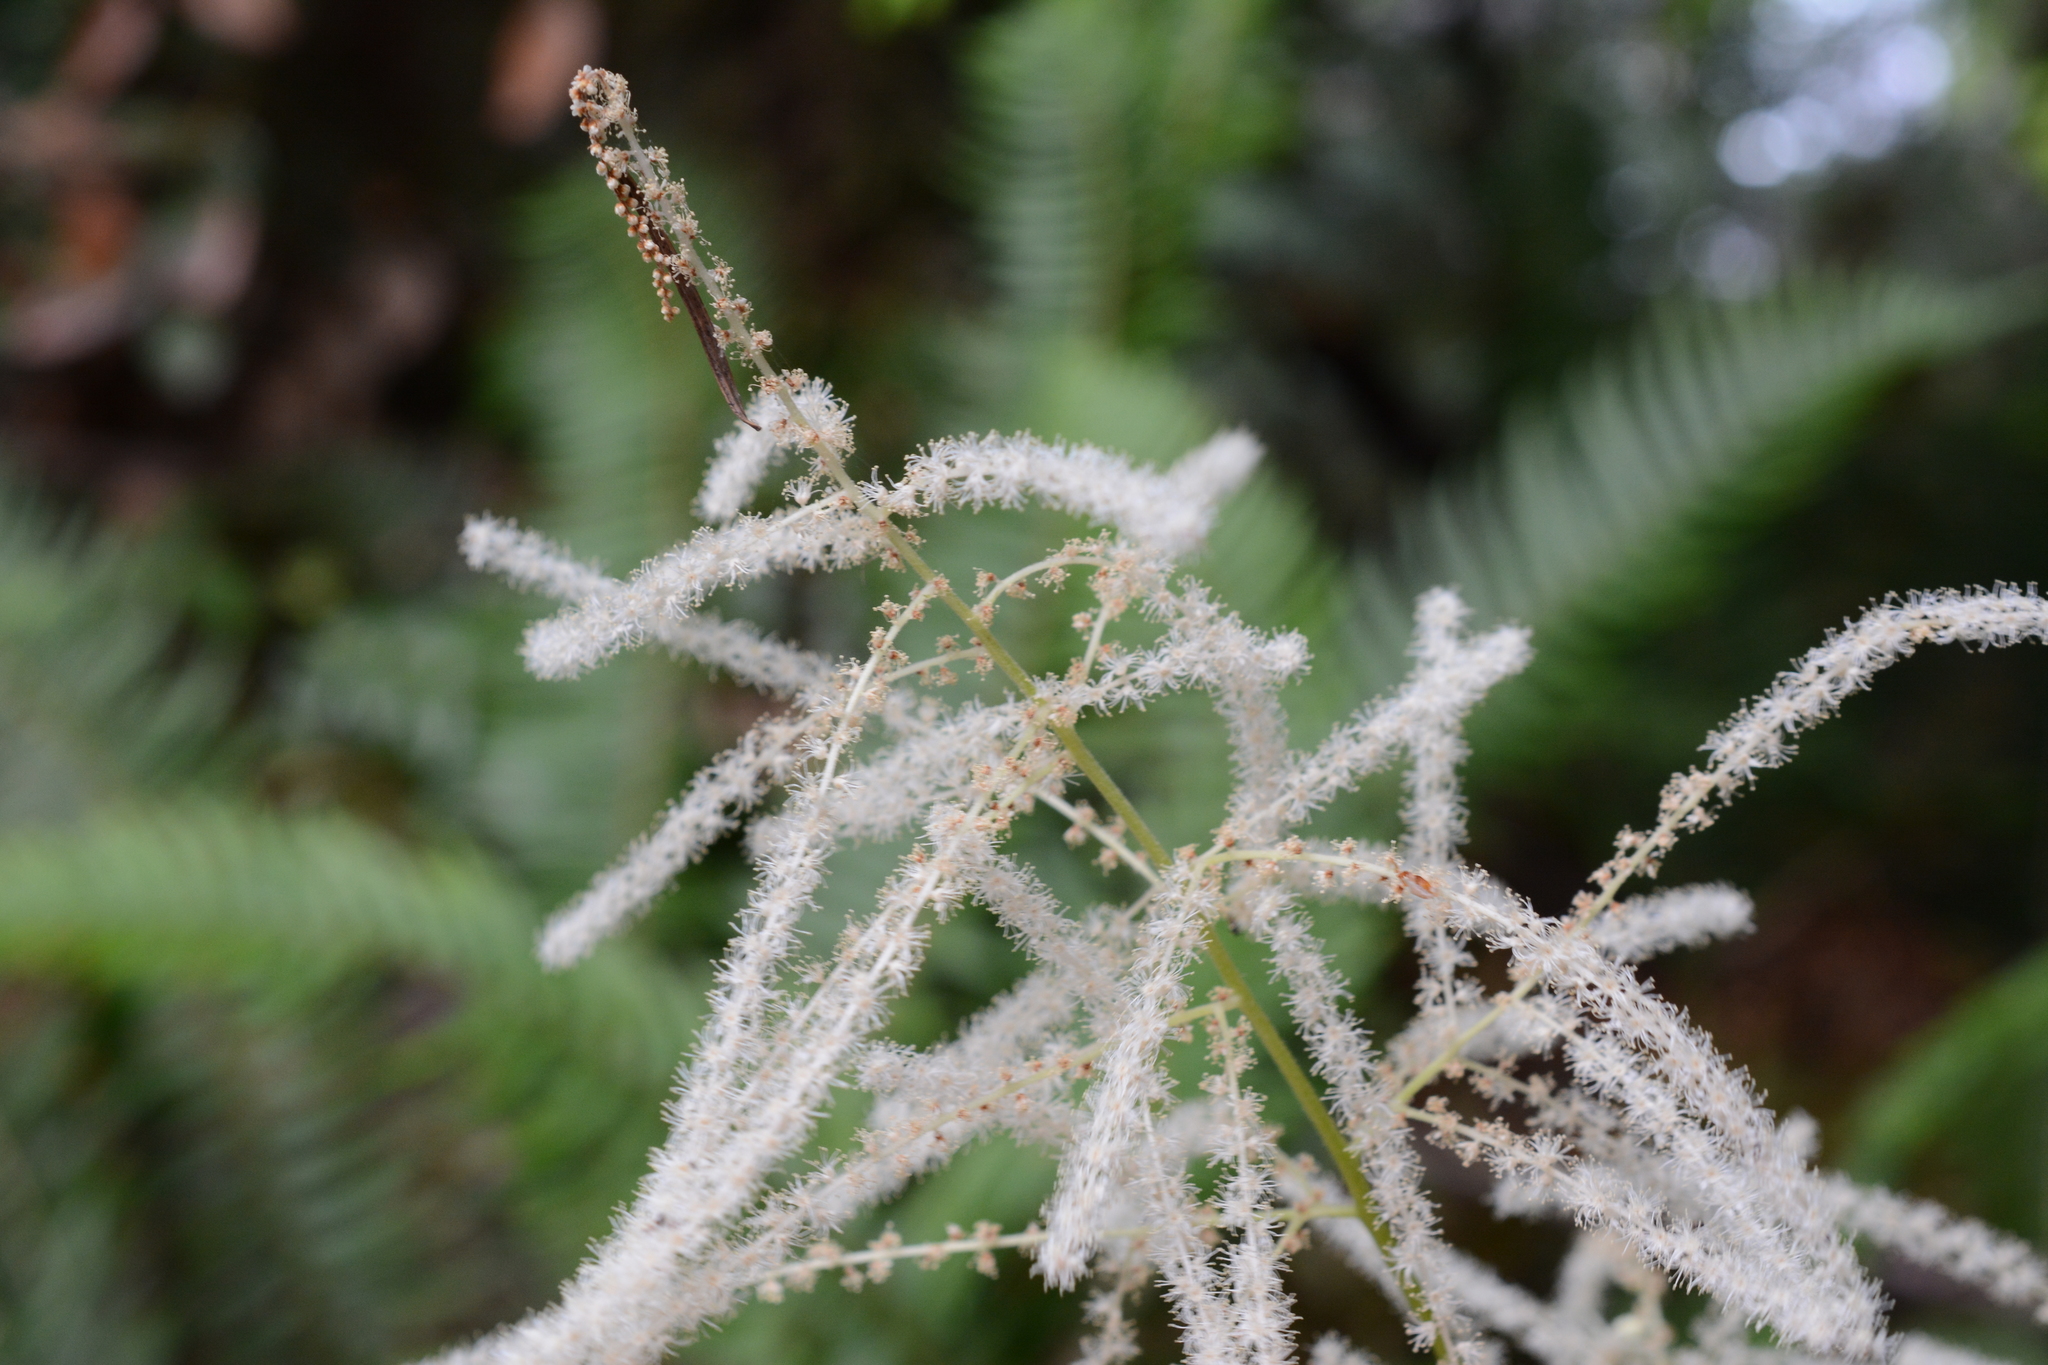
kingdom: Plantae
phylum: Tracheophyta
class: Magnoliopsida
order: Rosales
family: Rosaceae
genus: Aruncus
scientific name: Aruncus dioicus
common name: Buck's-beard
